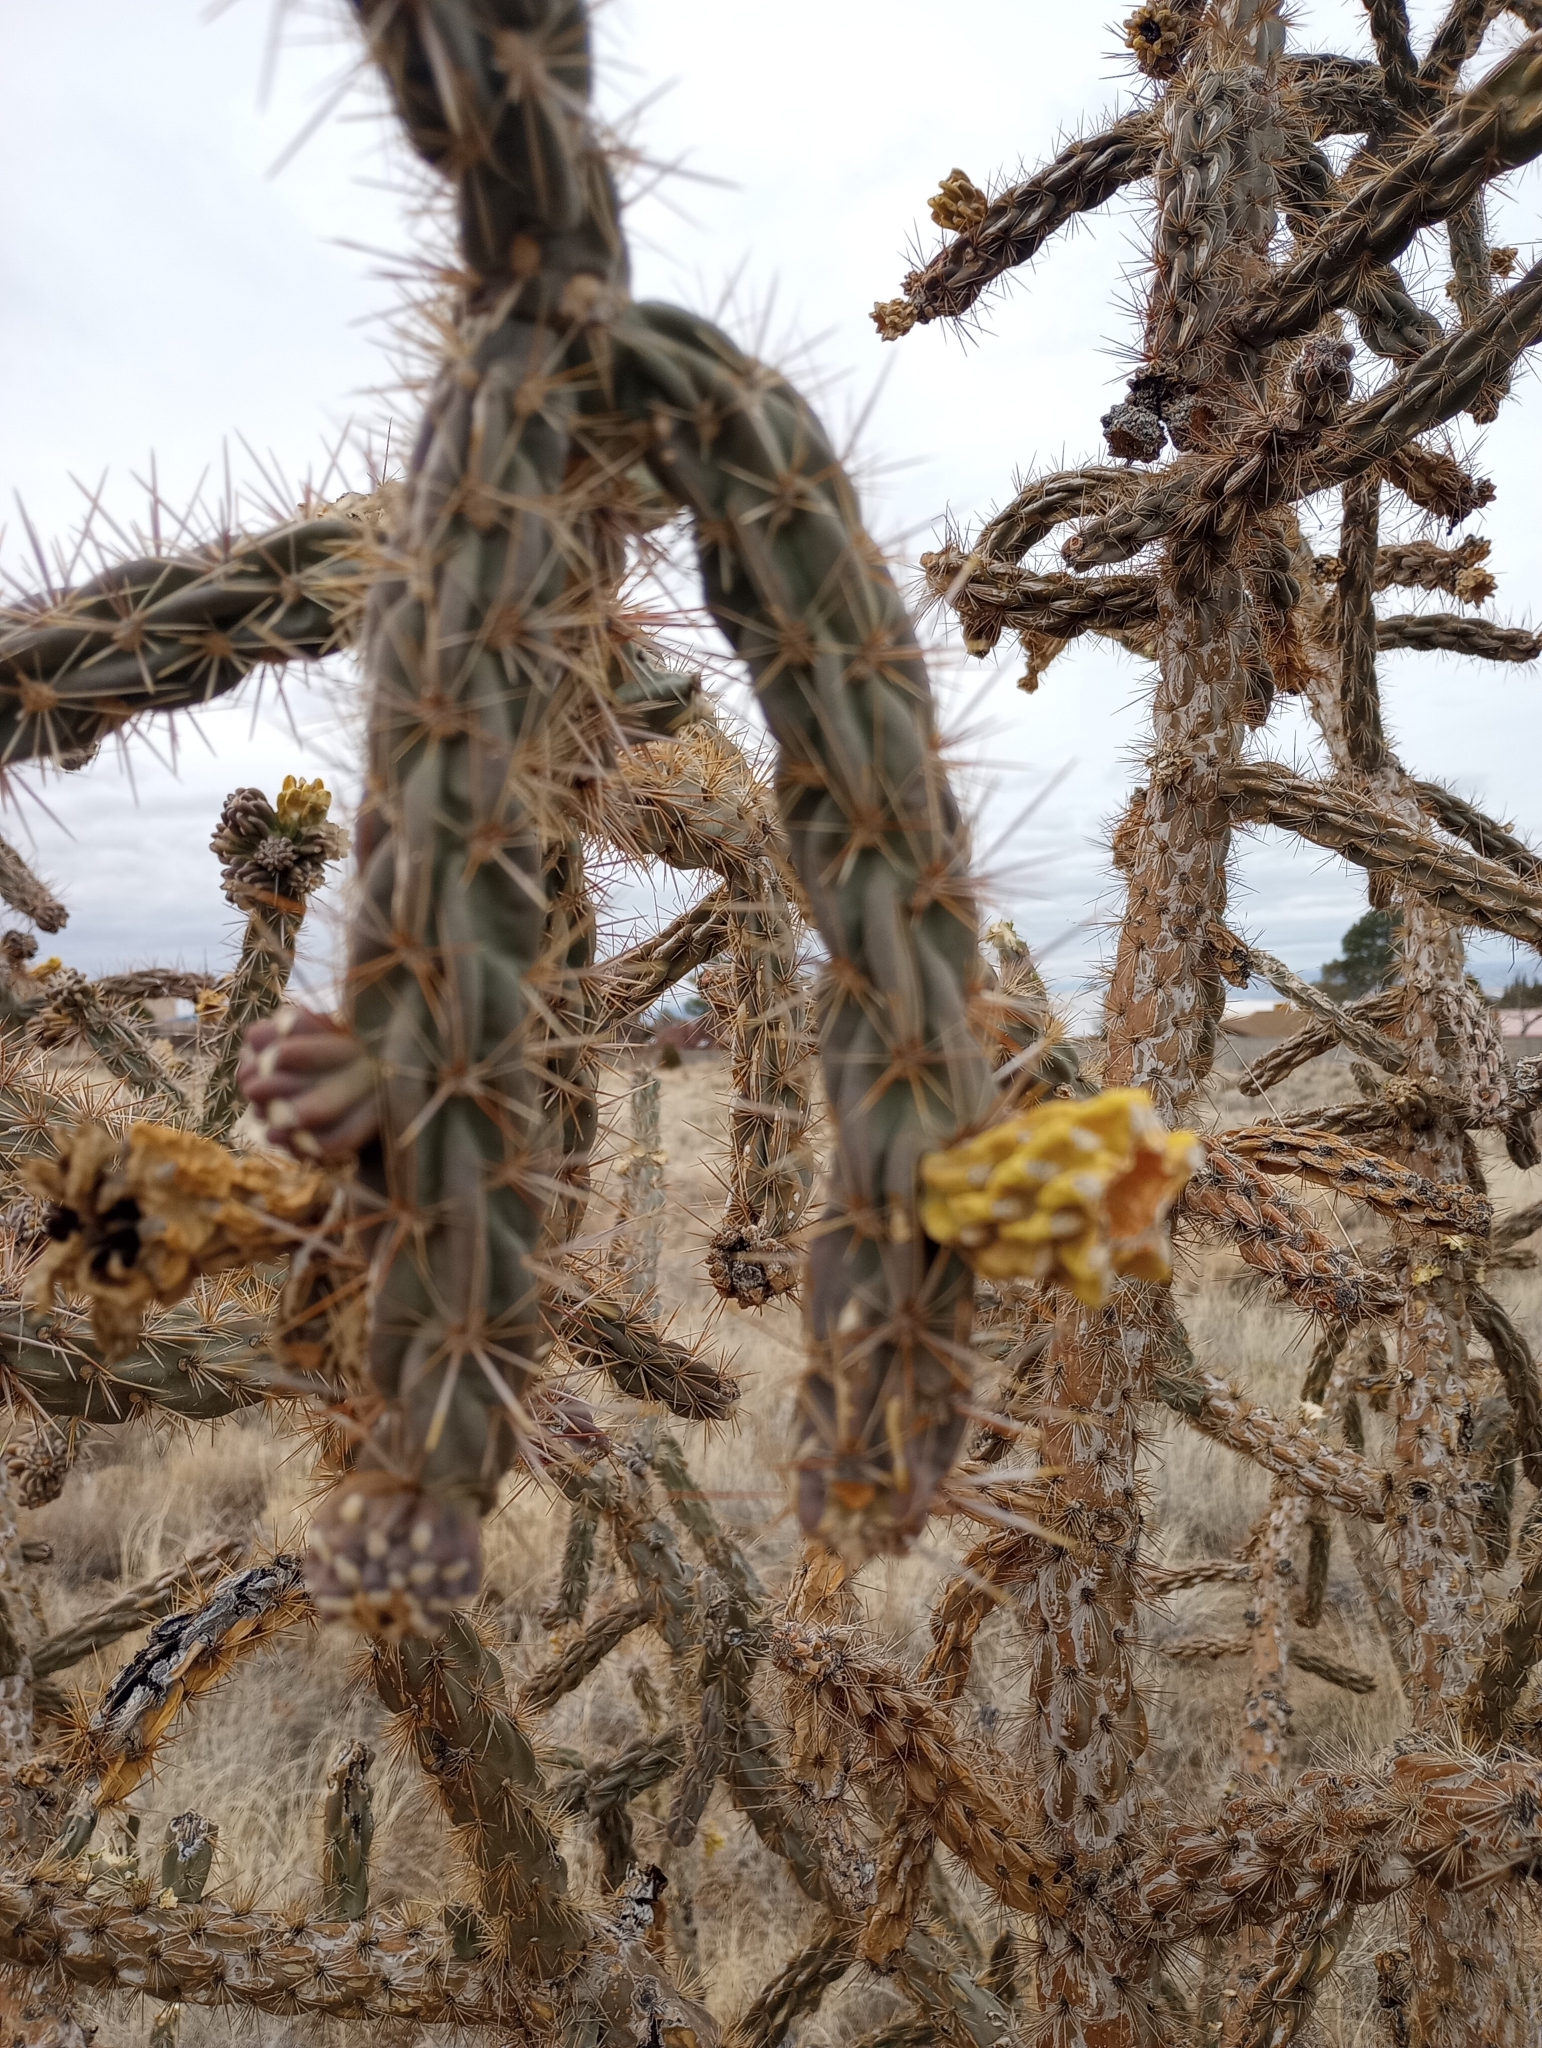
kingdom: Plantae
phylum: Tracheophyta
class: Magnoliopsida
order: Caryophyllales
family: Cactaceae
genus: Cylindropuntia
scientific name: Cylindropuntia imbricata
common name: Candelabrum cactus
